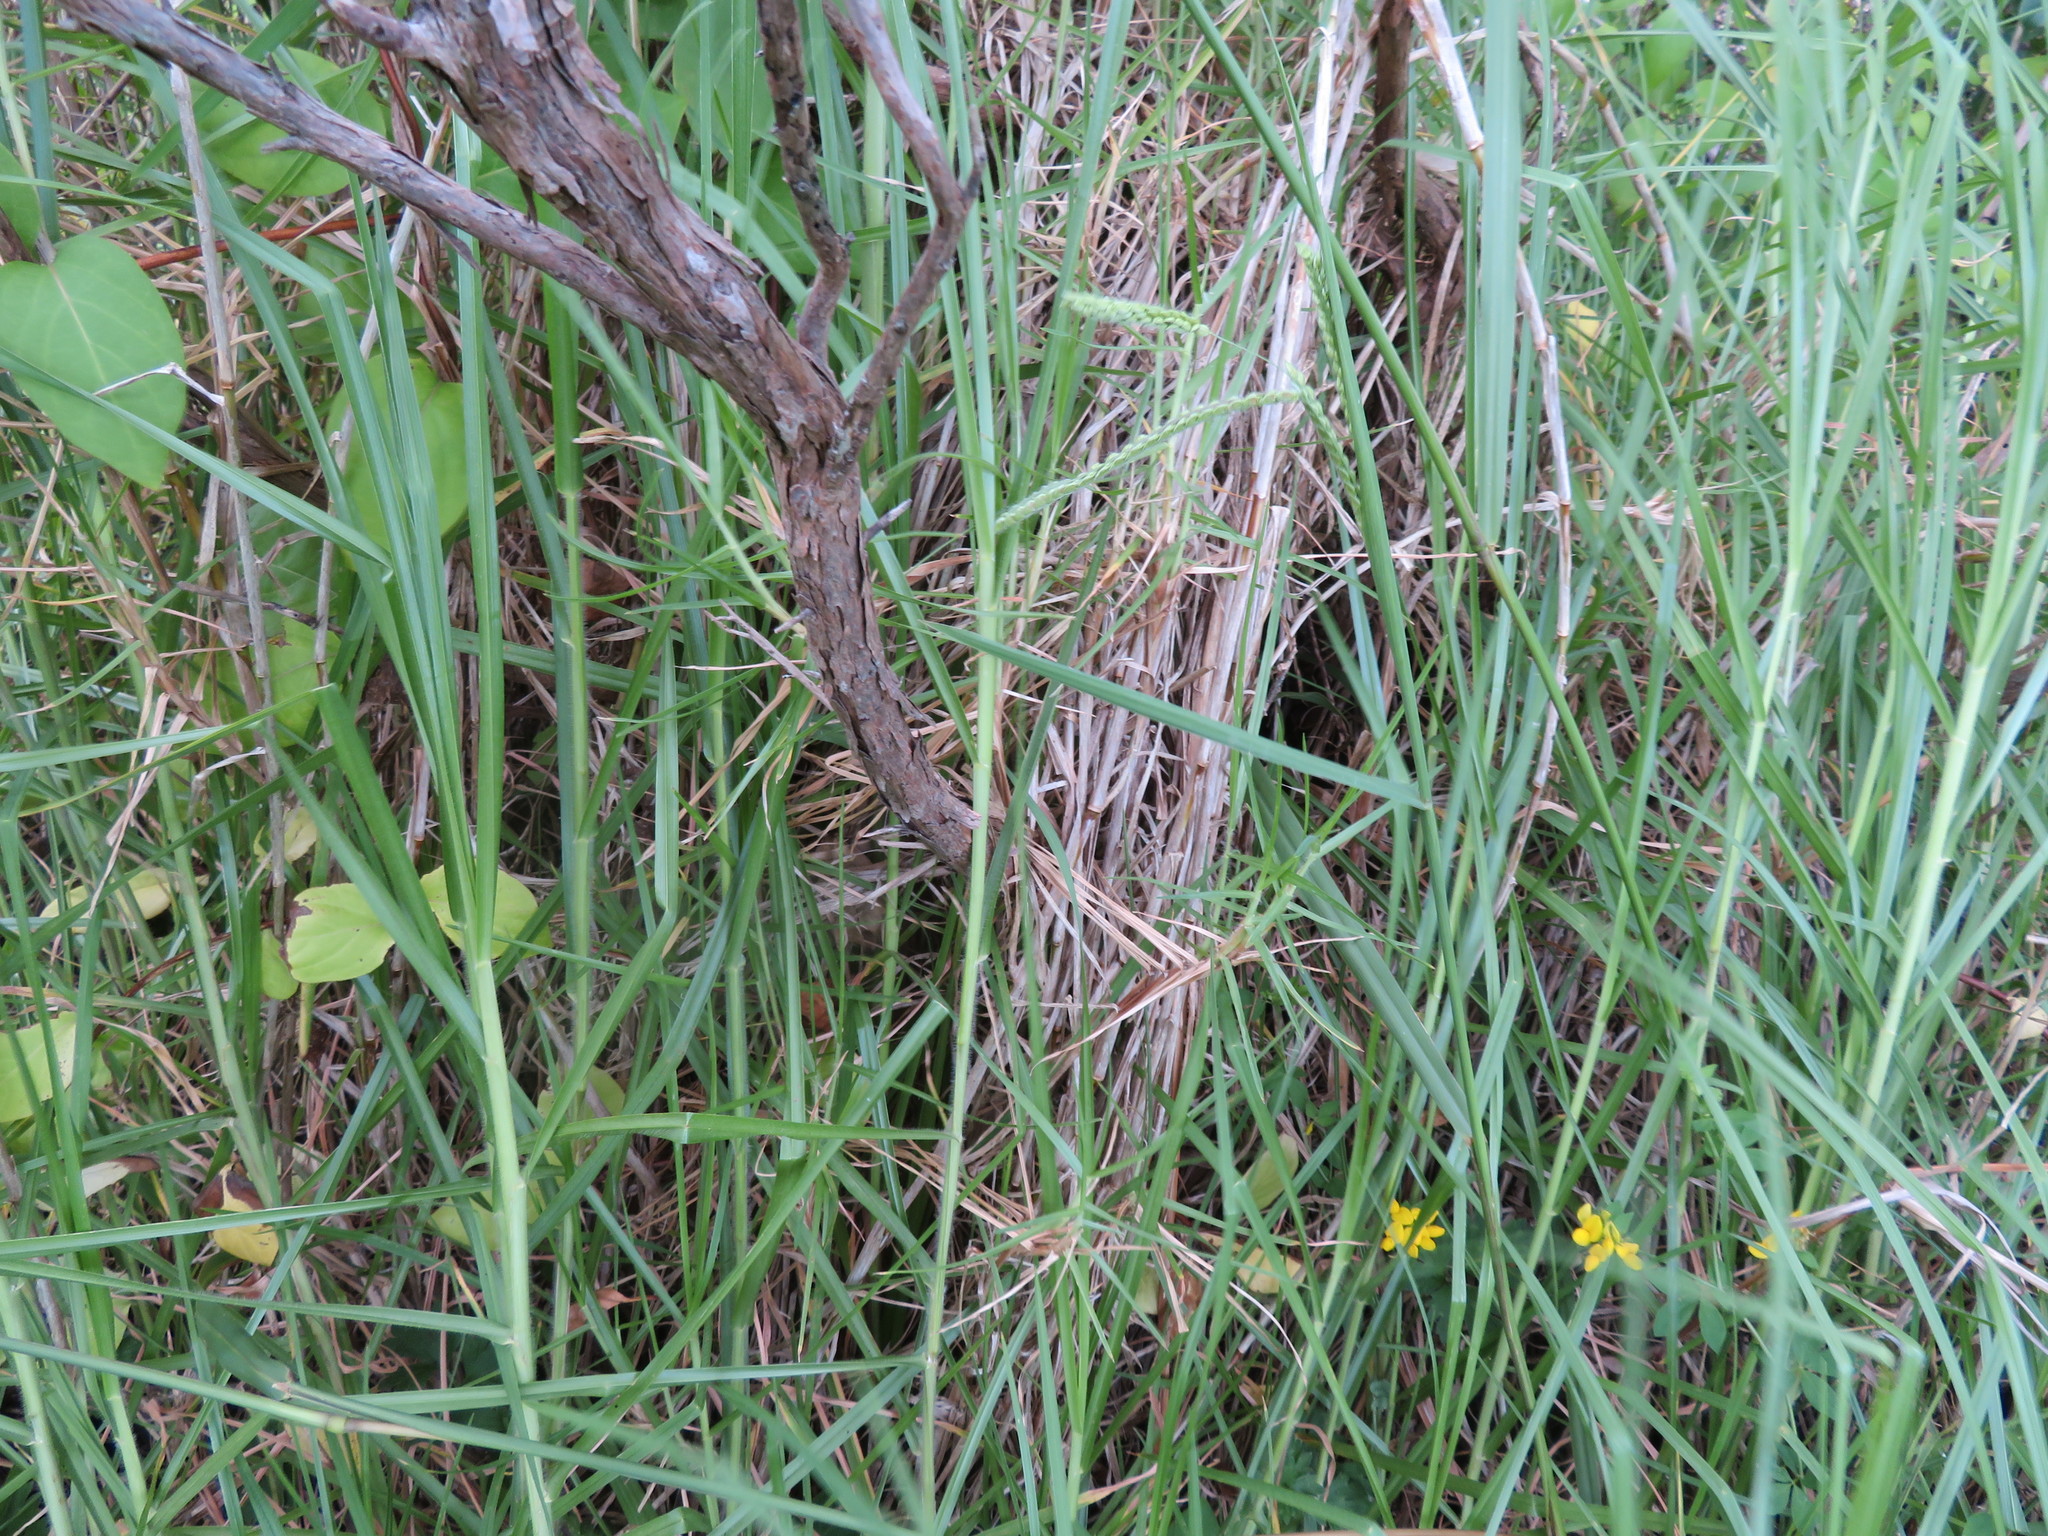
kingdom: Plantae
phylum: Tracheophyta
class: Liliopsida
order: Poales
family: Poaceae
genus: Cenchrus
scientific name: Cenchrus clandestinus
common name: Kikuyugrass
